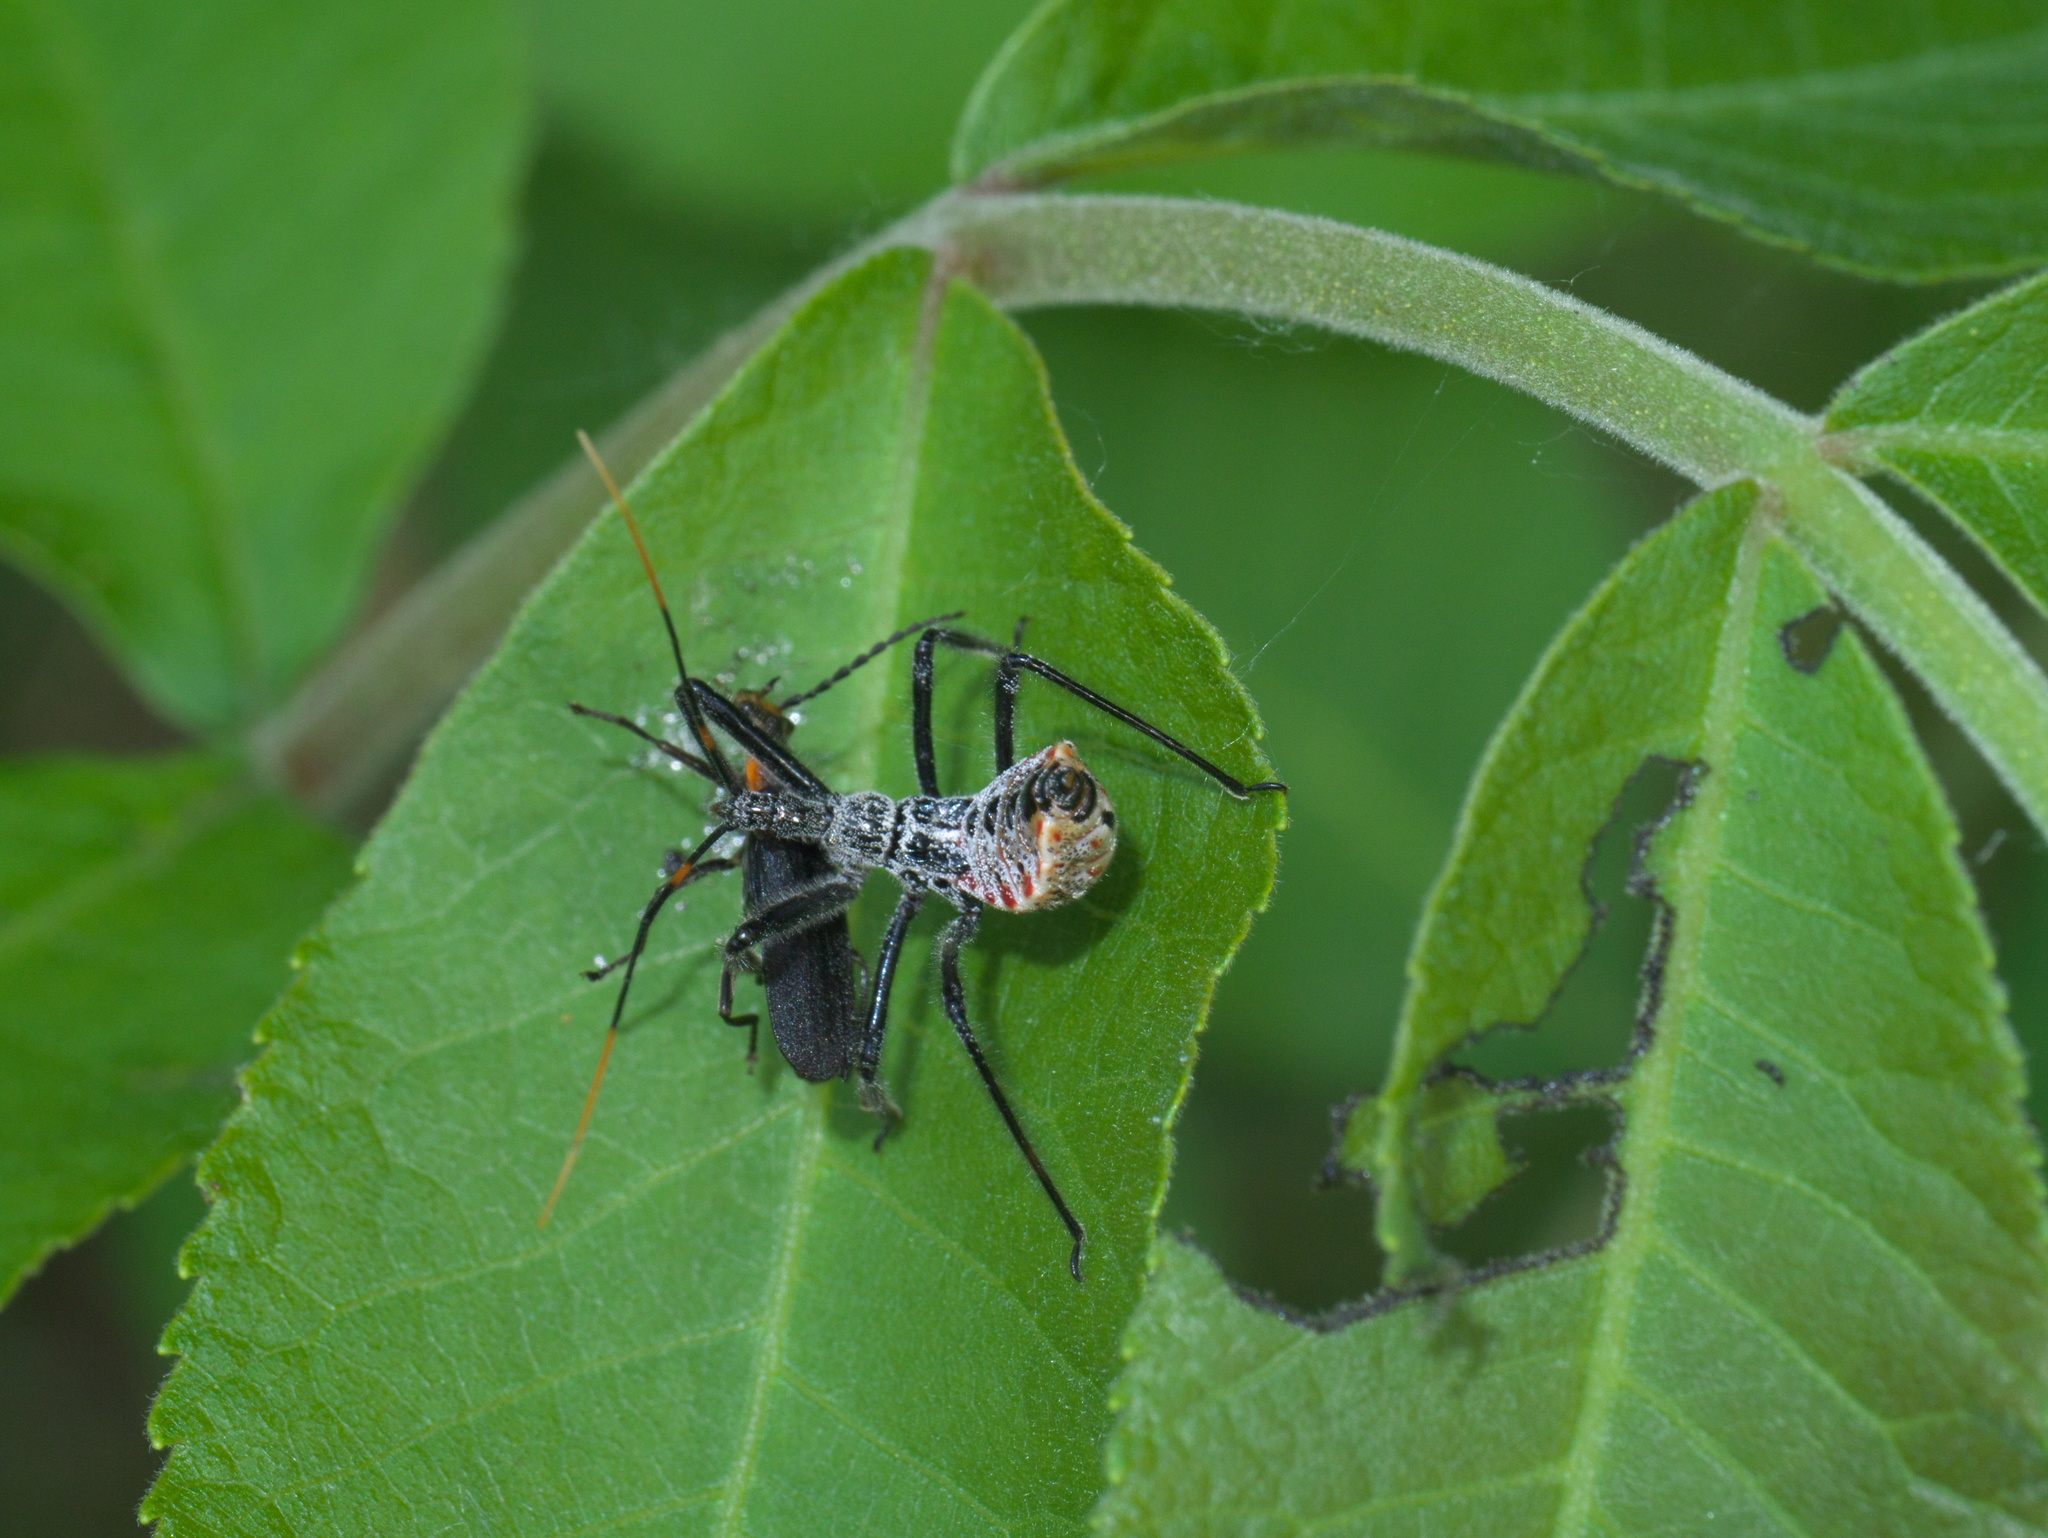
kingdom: Animalia
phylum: Arthropoda
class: Insecta
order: Hemiptera
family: Reduviidae
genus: Arilus
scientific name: Arilus cristatus
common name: North american wheel bug
